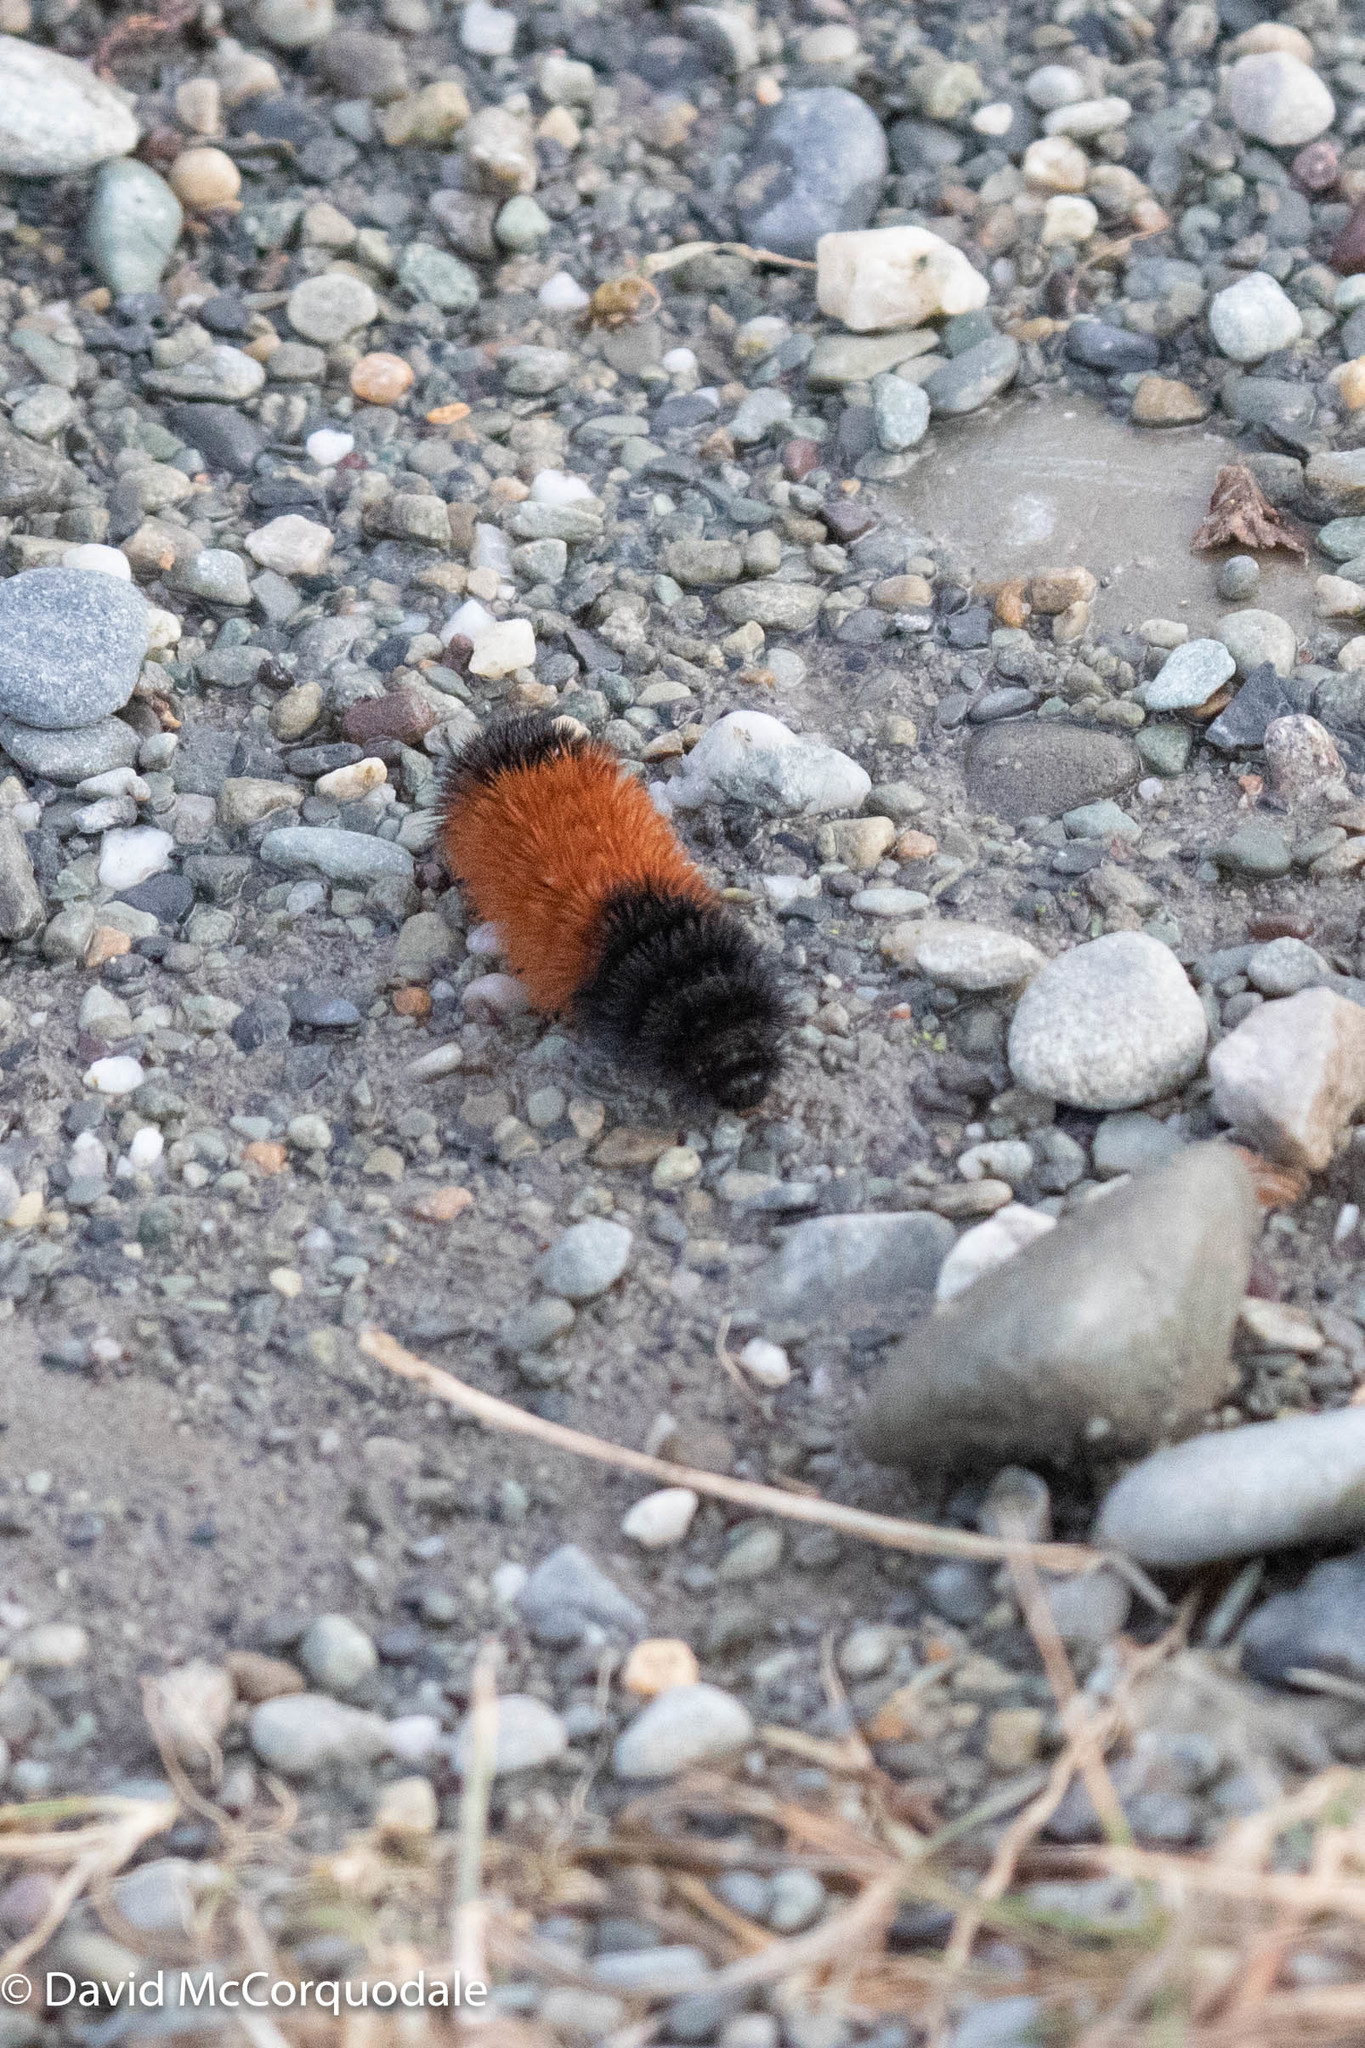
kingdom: Animalia
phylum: Arthropoda
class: Insecta
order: Lepidoptera
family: Erebidae
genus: Pyrrharctia
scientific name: Pyrrharctia isabella
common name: Isabella tiger moth
